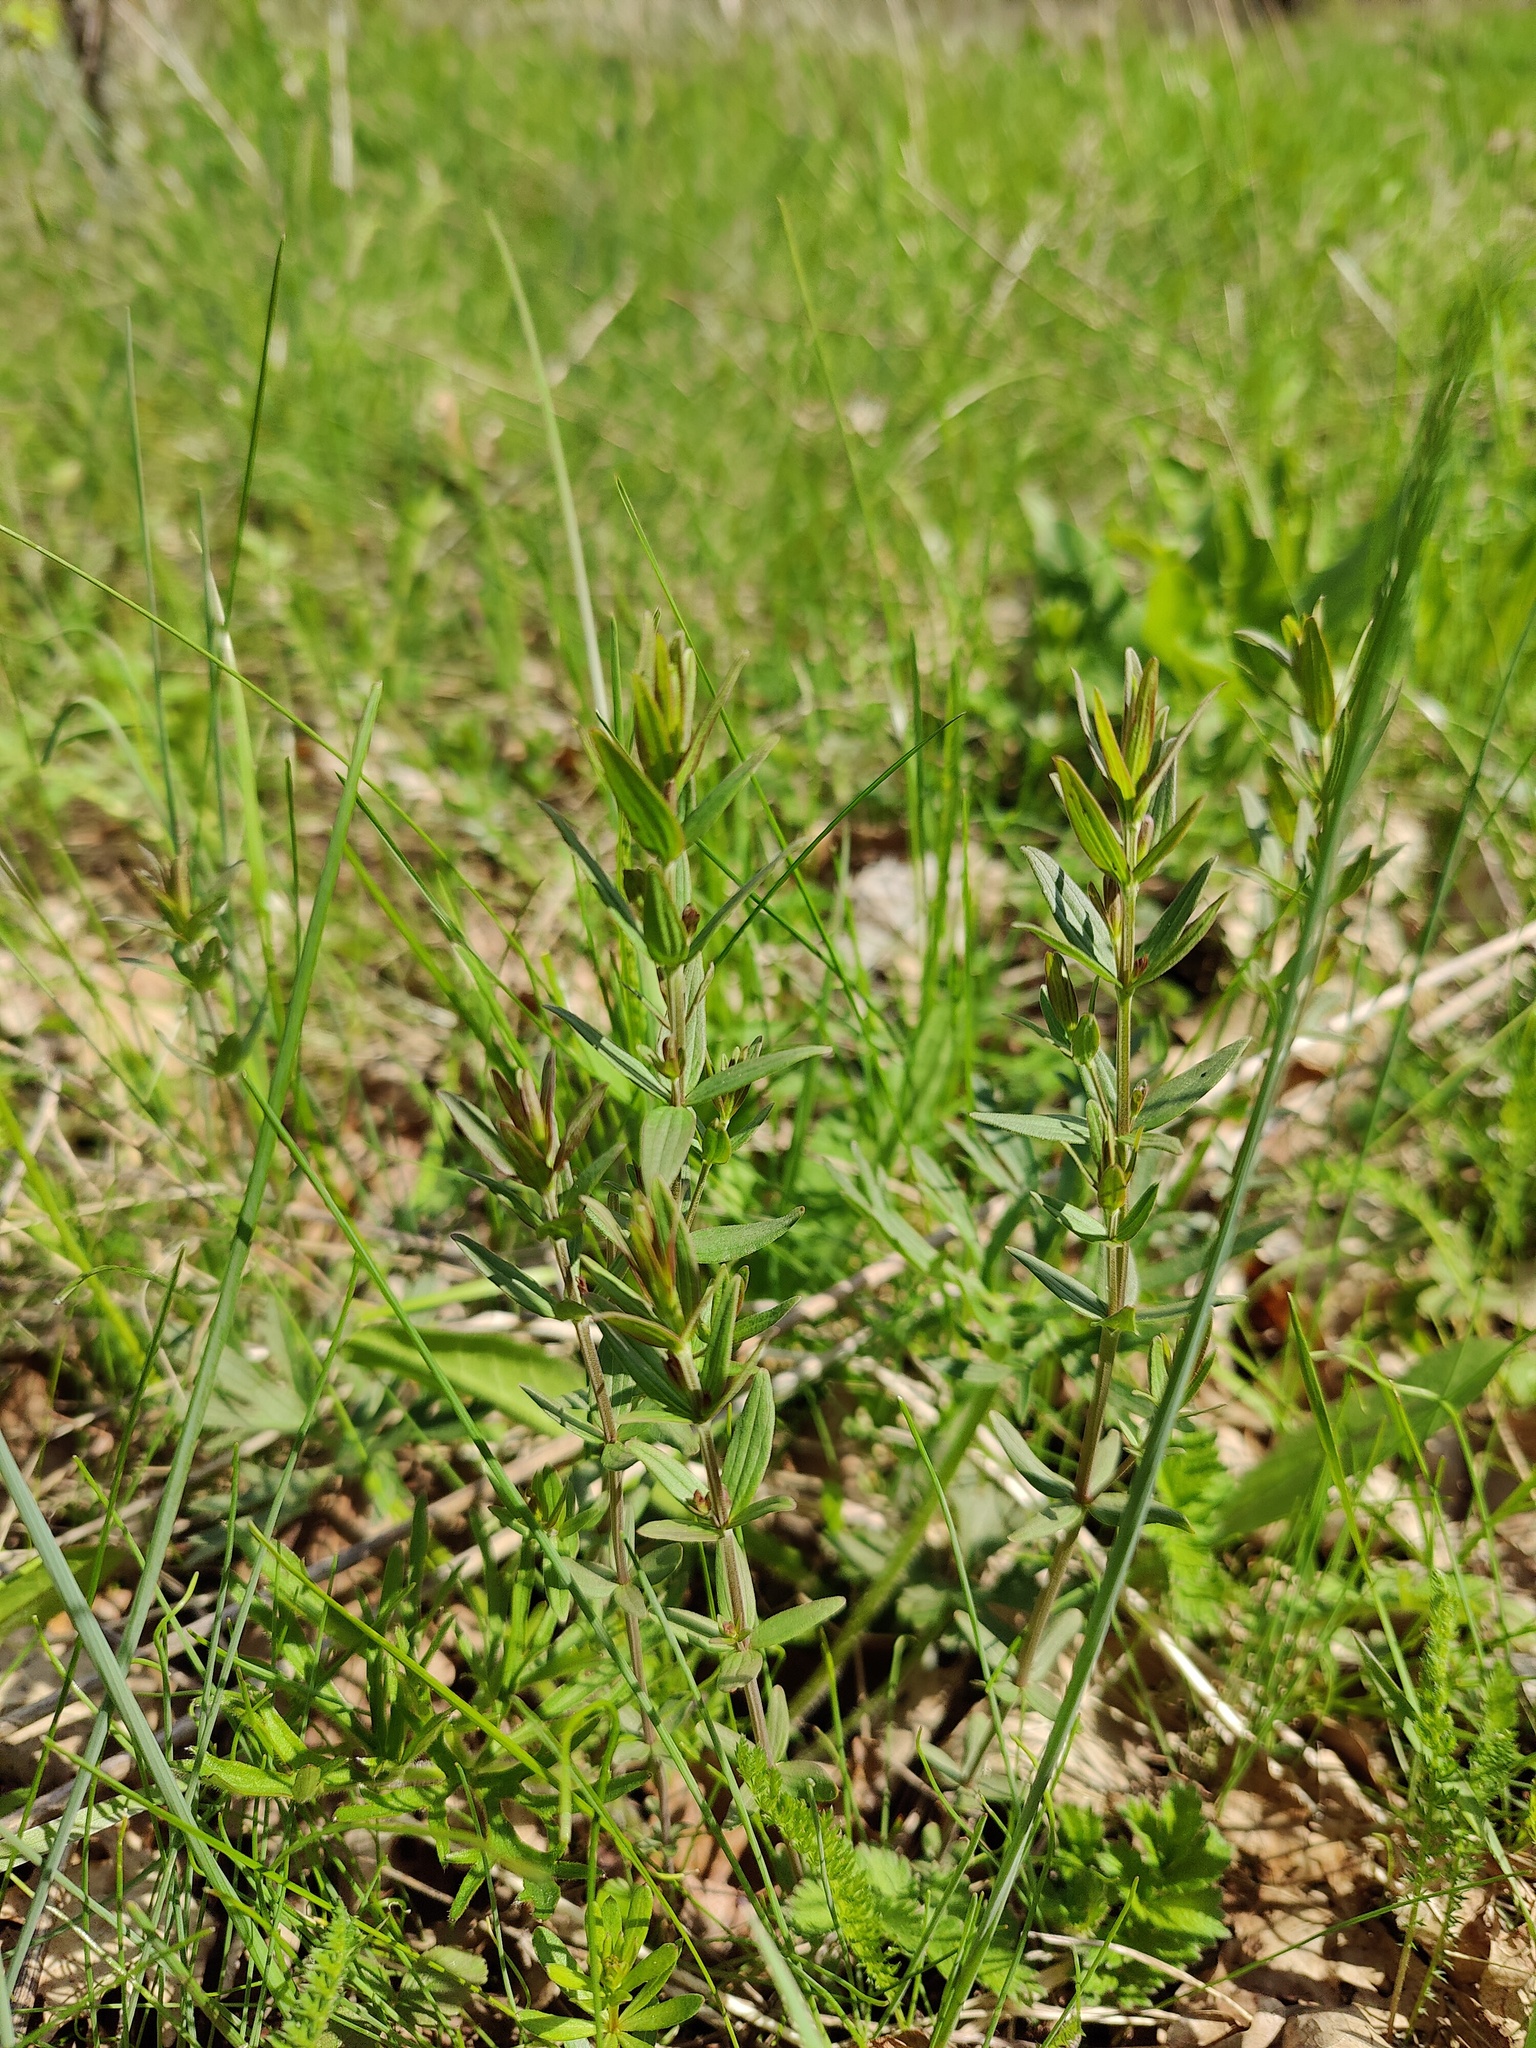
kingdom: Plantae
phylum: Tracheophyta
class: Magnoliopsida
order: Gentianales
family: Rubiaceae
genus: Galium
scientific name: Galium boreale
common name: Northern bedstraw
